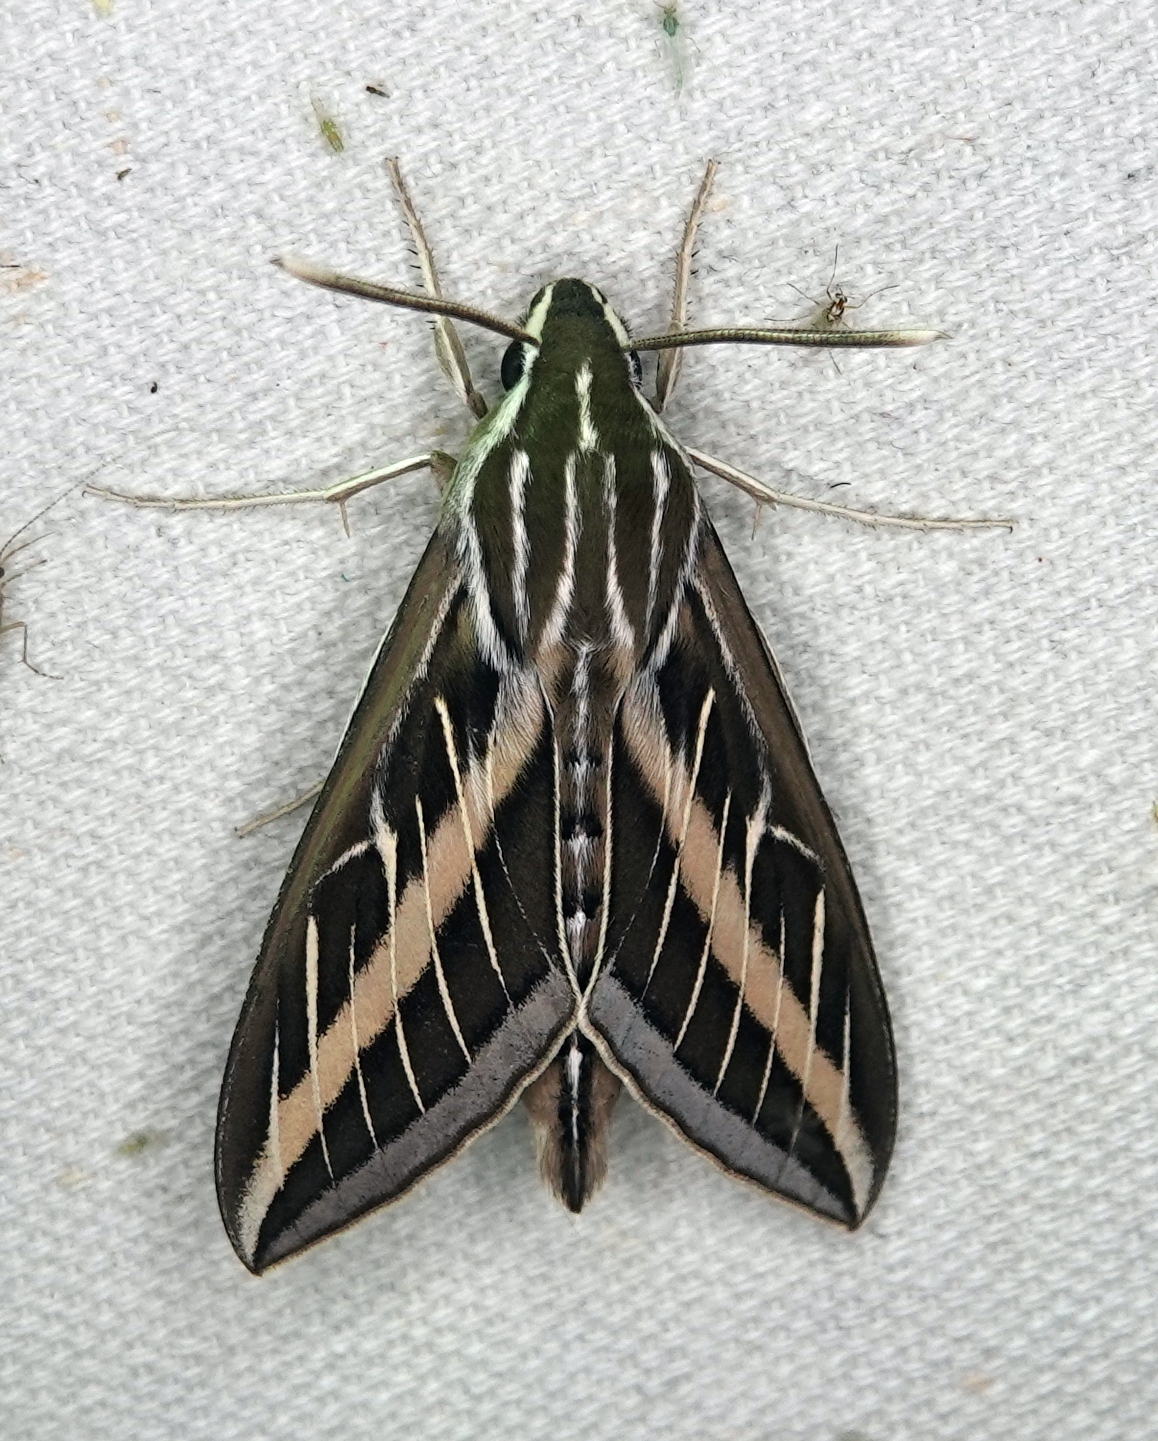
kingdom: Animalia
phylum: Arthropoda
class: Insecta
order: Lepidoptera
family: Sphingidae
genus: Hyles
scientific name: Hyles lineata
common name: White-lined sphinx
